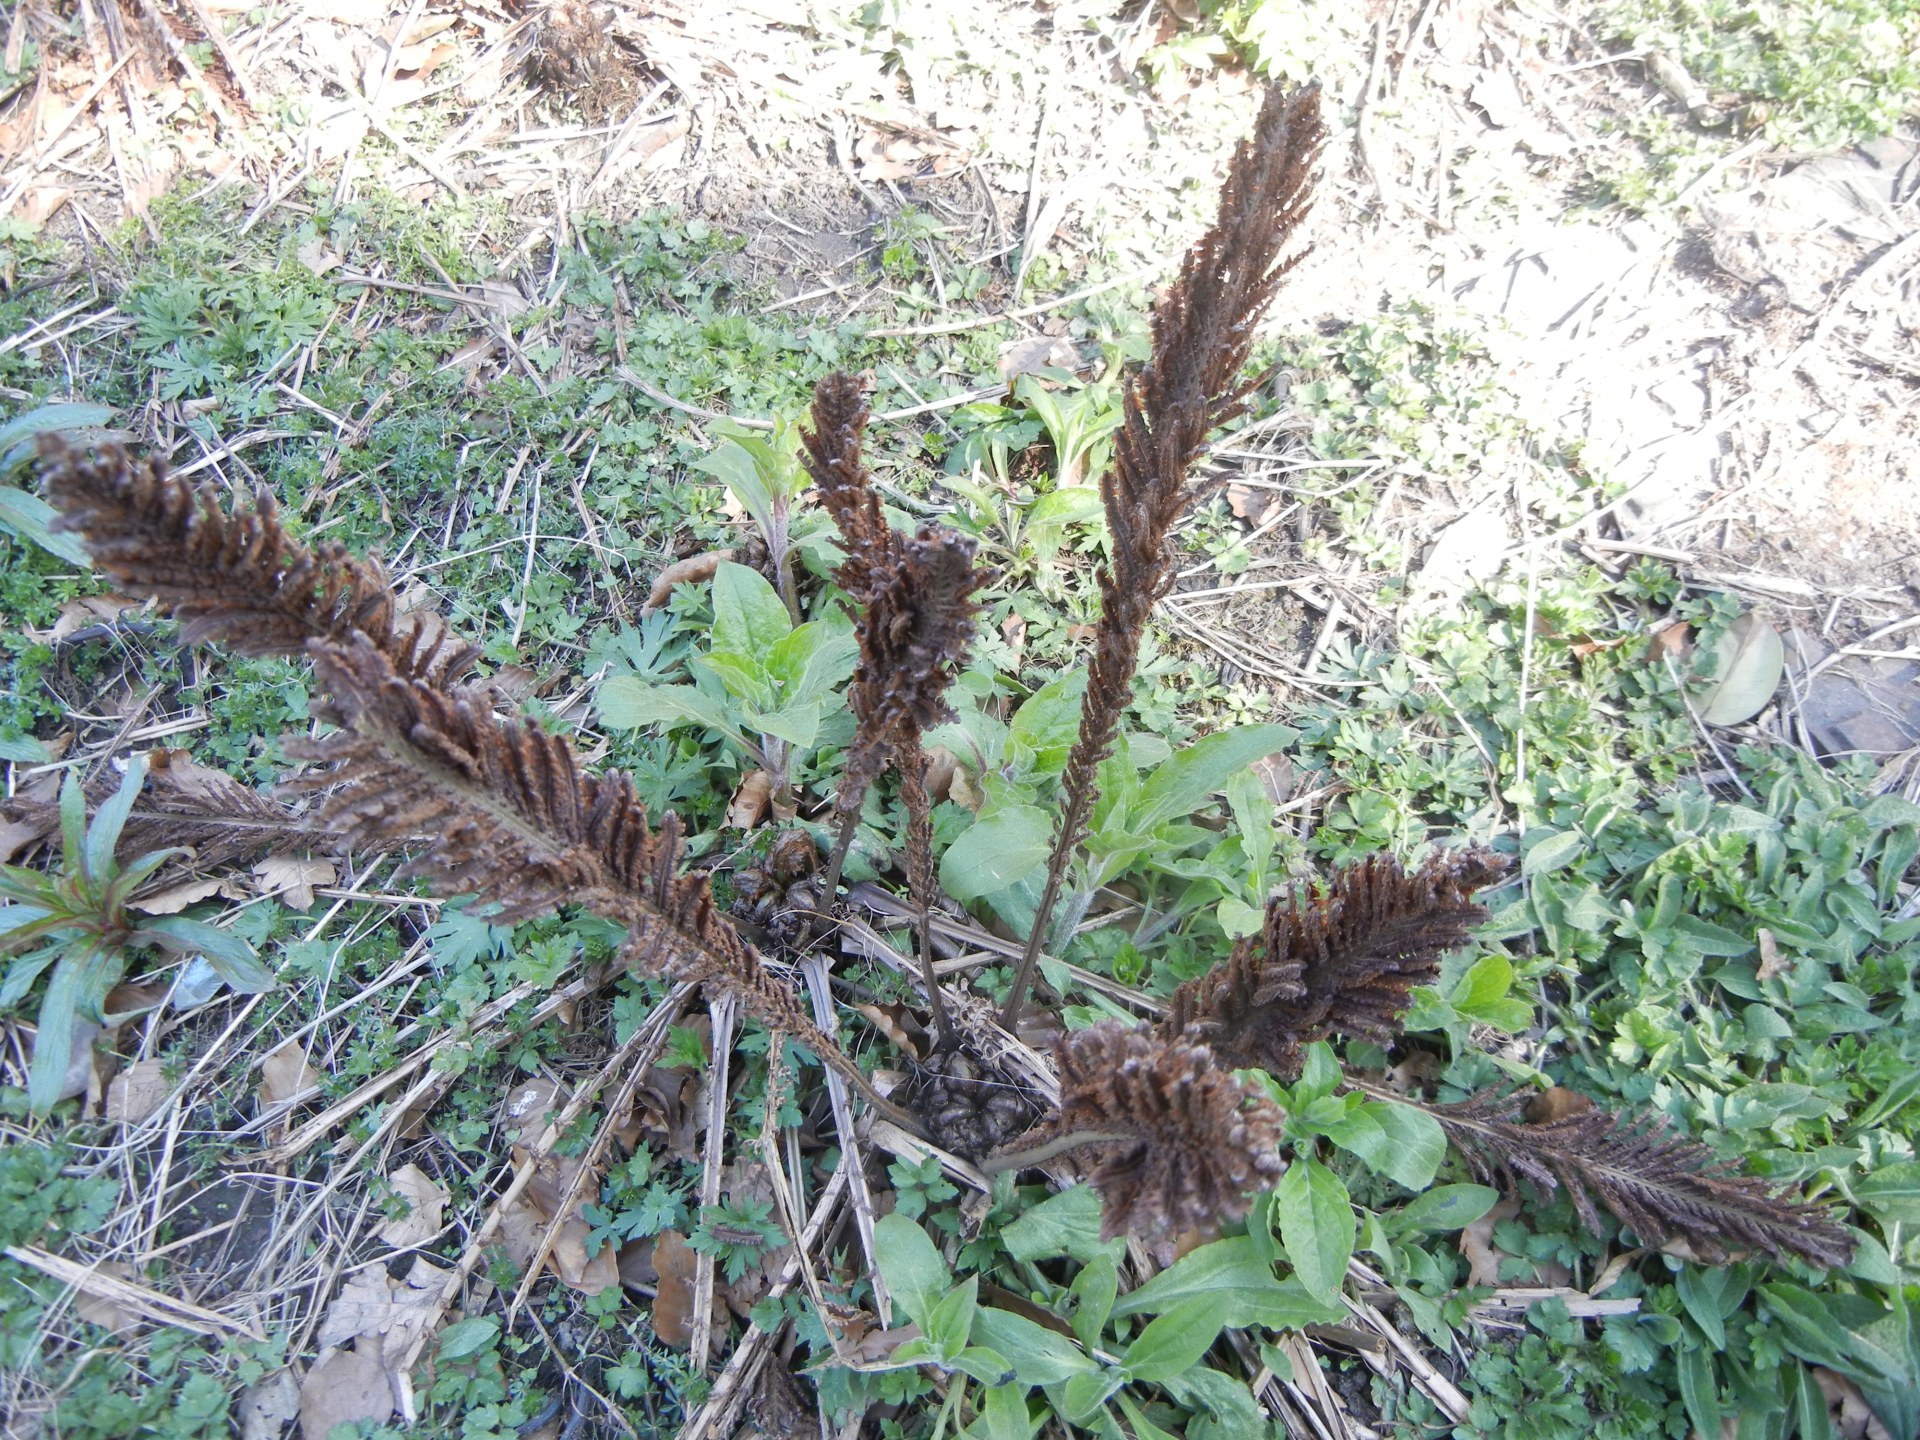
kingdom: Plantae
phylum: Tracheophyta
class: Polypodiopsida
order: Polypodiales
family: Onocleaceae
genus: Matteuccia
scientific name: Matteuccia struthiopteris
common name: Ostrich fern
